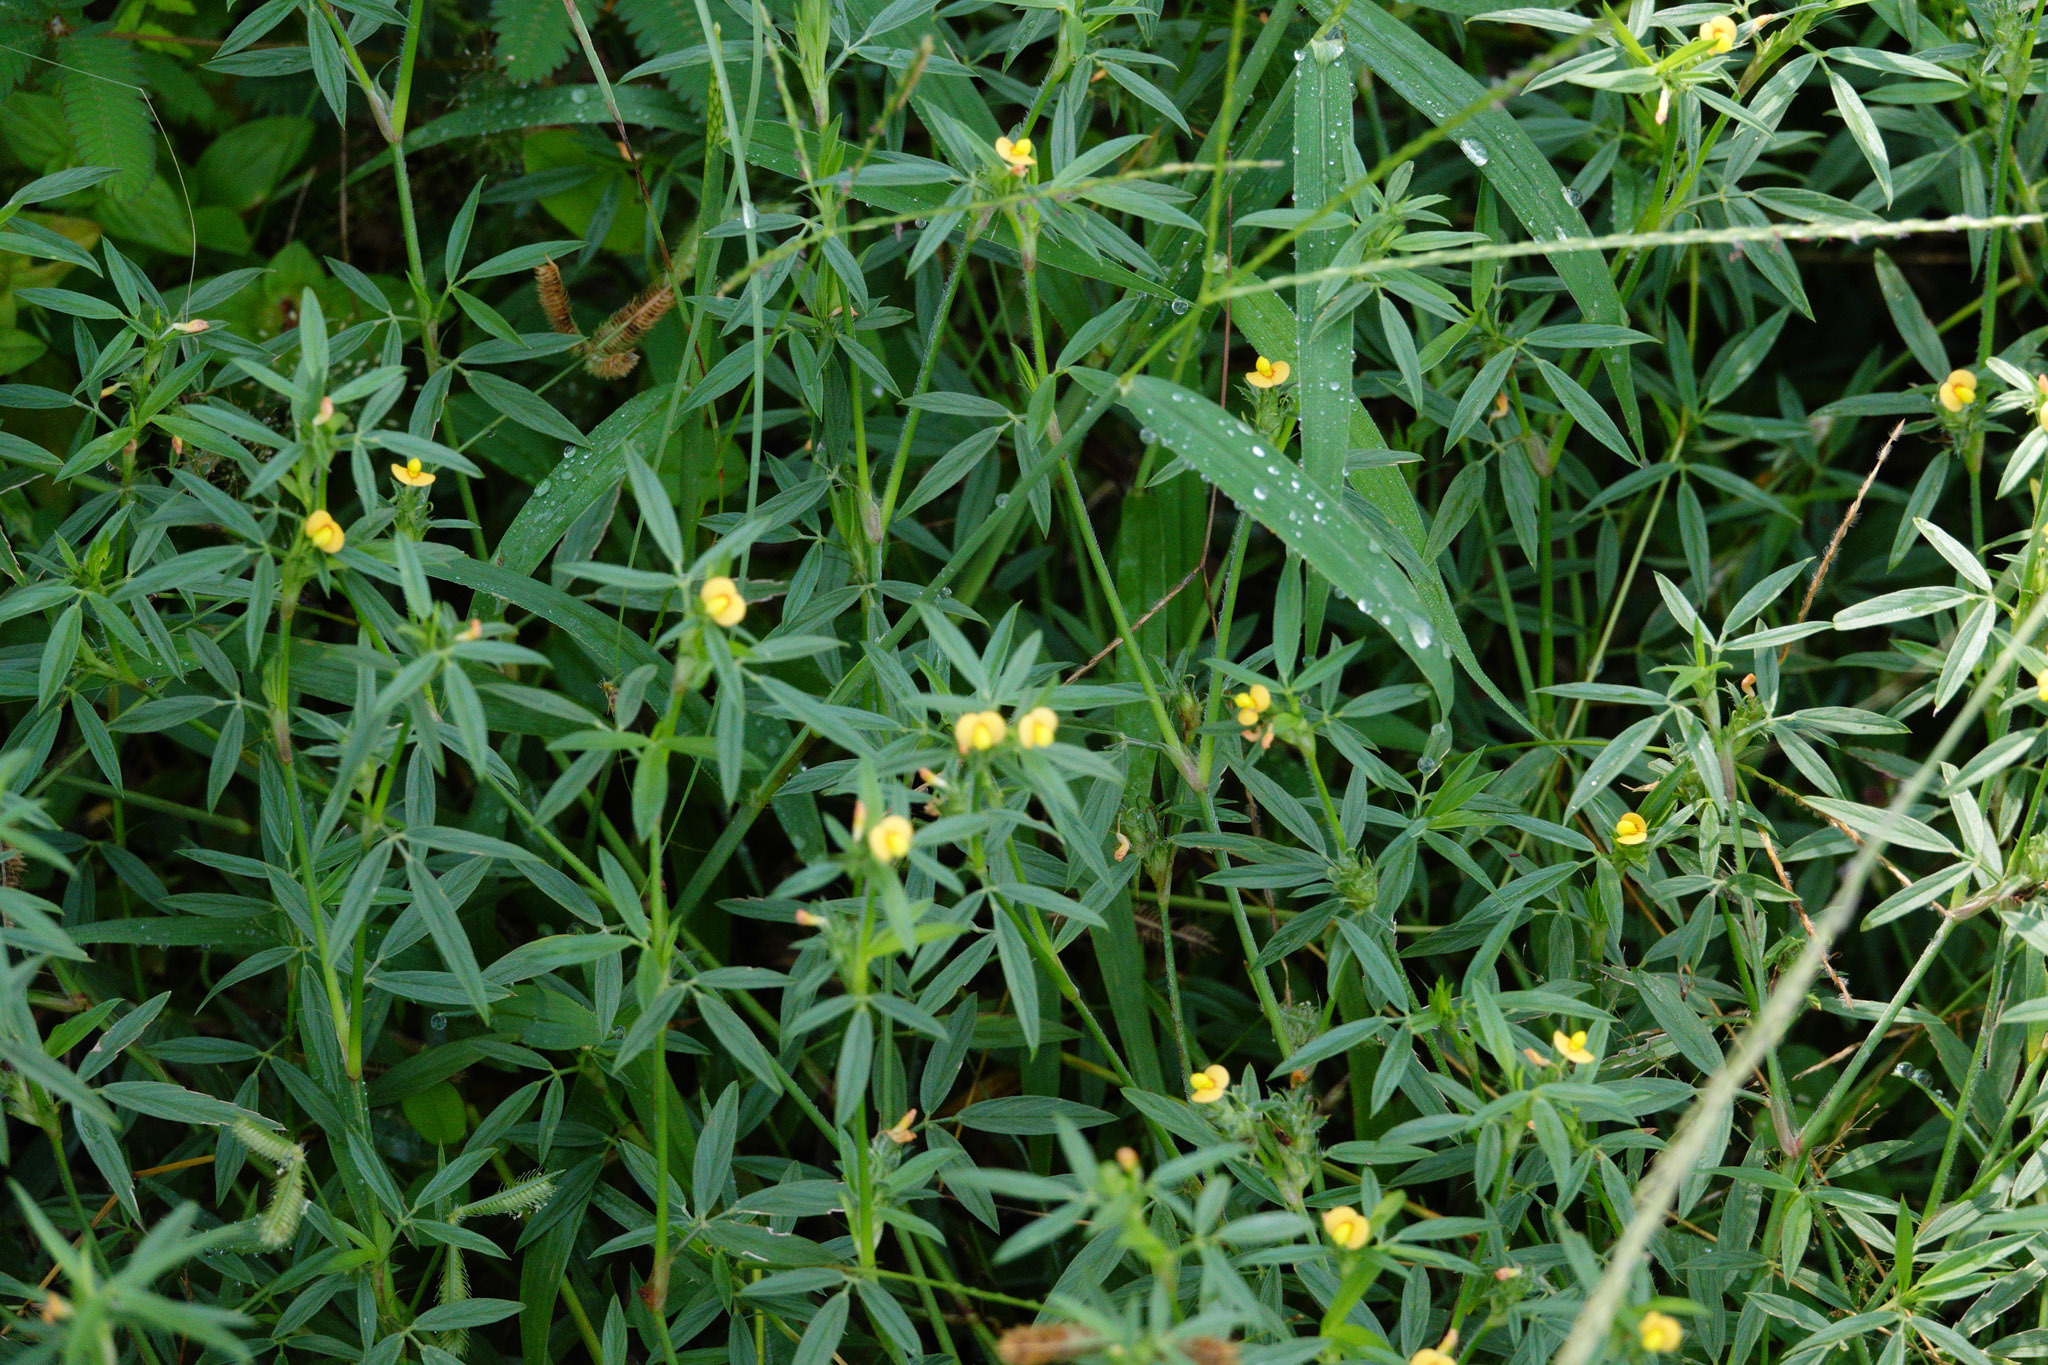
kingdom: Plantae
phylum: Tracheophyta
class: Magnoliopsida
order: Fabales
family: Fabaceae
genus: Stylosanthes
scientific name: Stylosanthes humilis
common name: Townsville stylo
